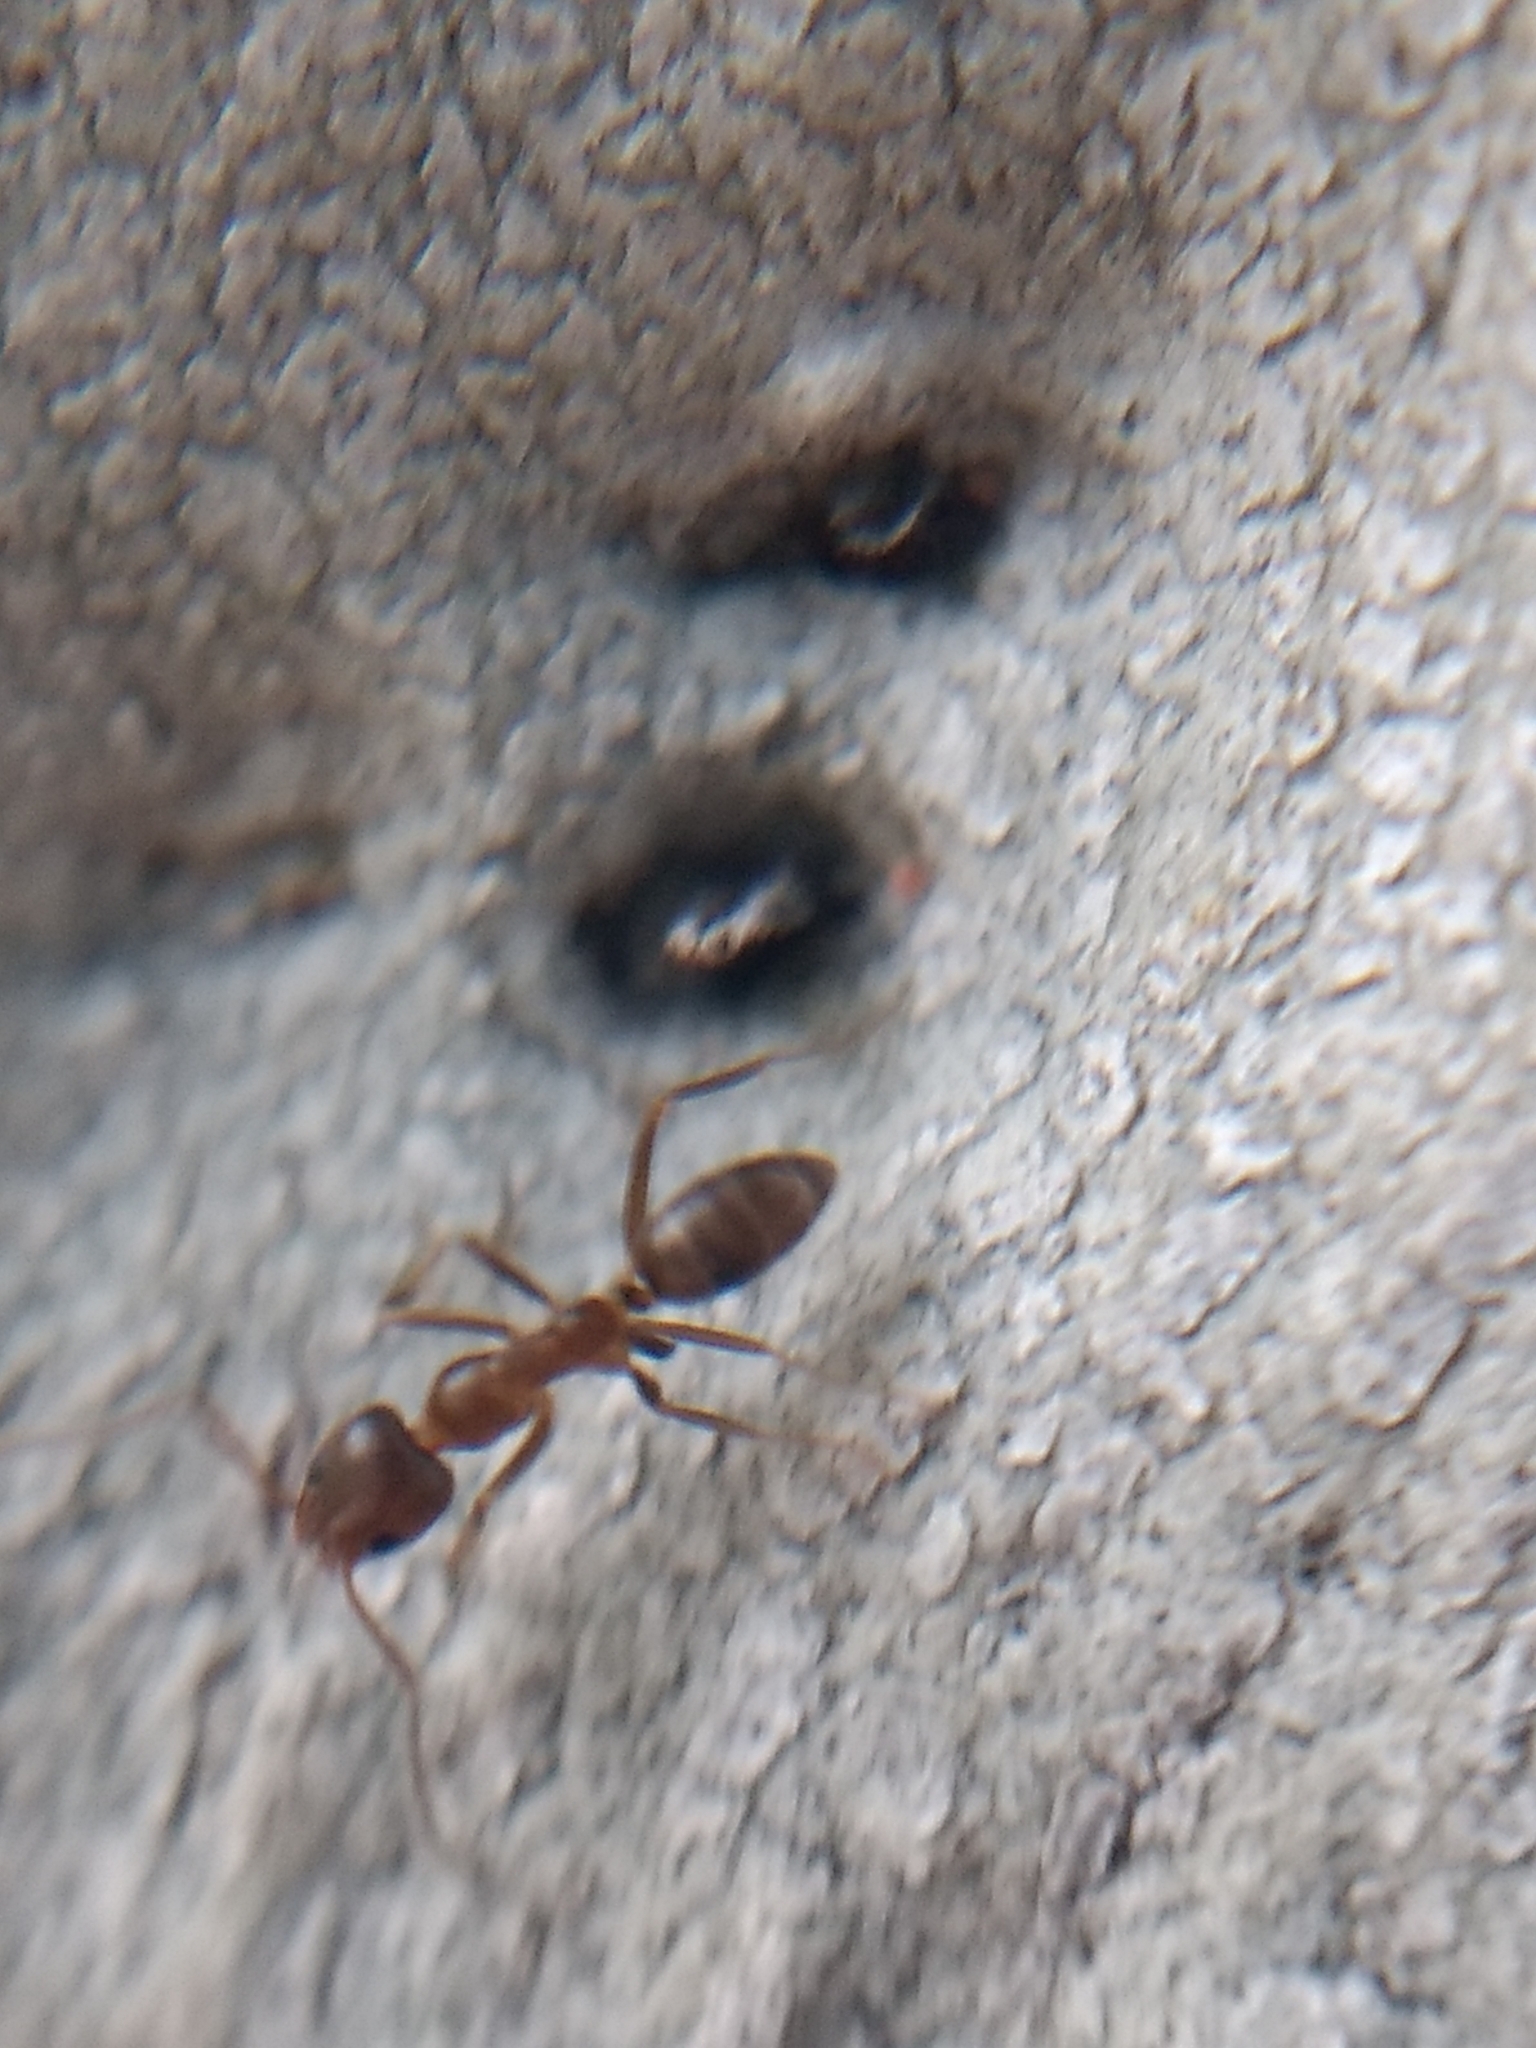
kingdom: Animalia
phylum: Arthropoda
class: Insecta
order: Hymenoptera
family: Formicidae
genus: Linepithema
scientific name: Linepithema humile
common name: Argentine ant
